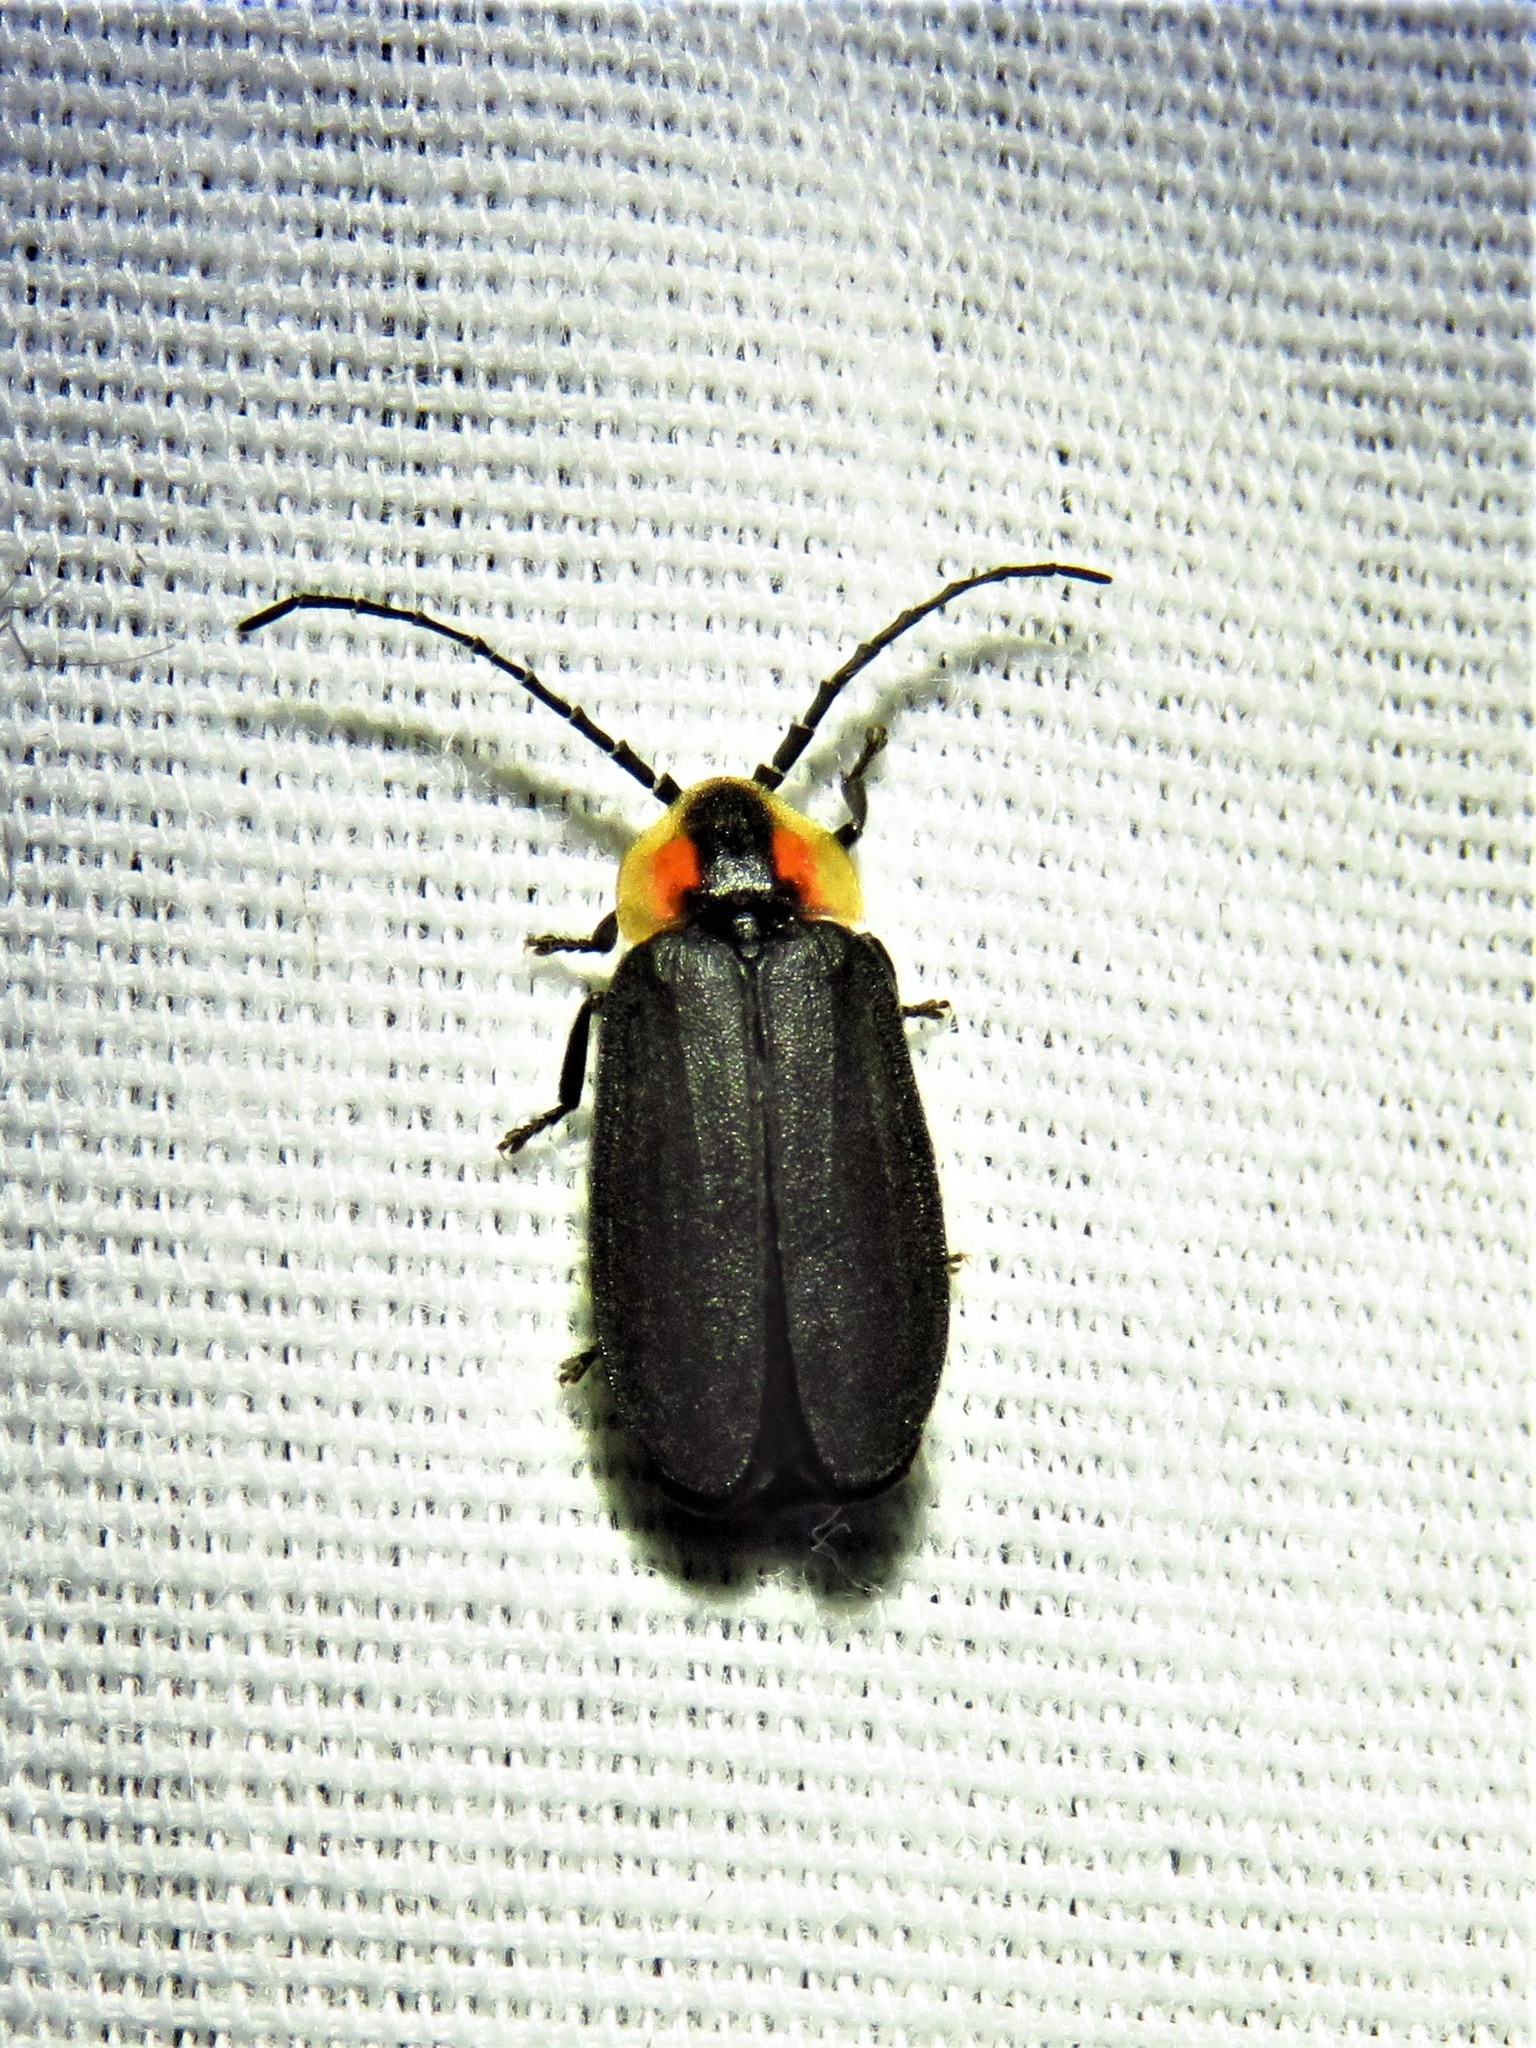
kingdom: Animalia
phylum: Arthropoda
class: Insecta
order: Coleoptera
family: Lampyridae
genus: Lucidota
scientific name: Lucidota atra
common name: Black firefly
